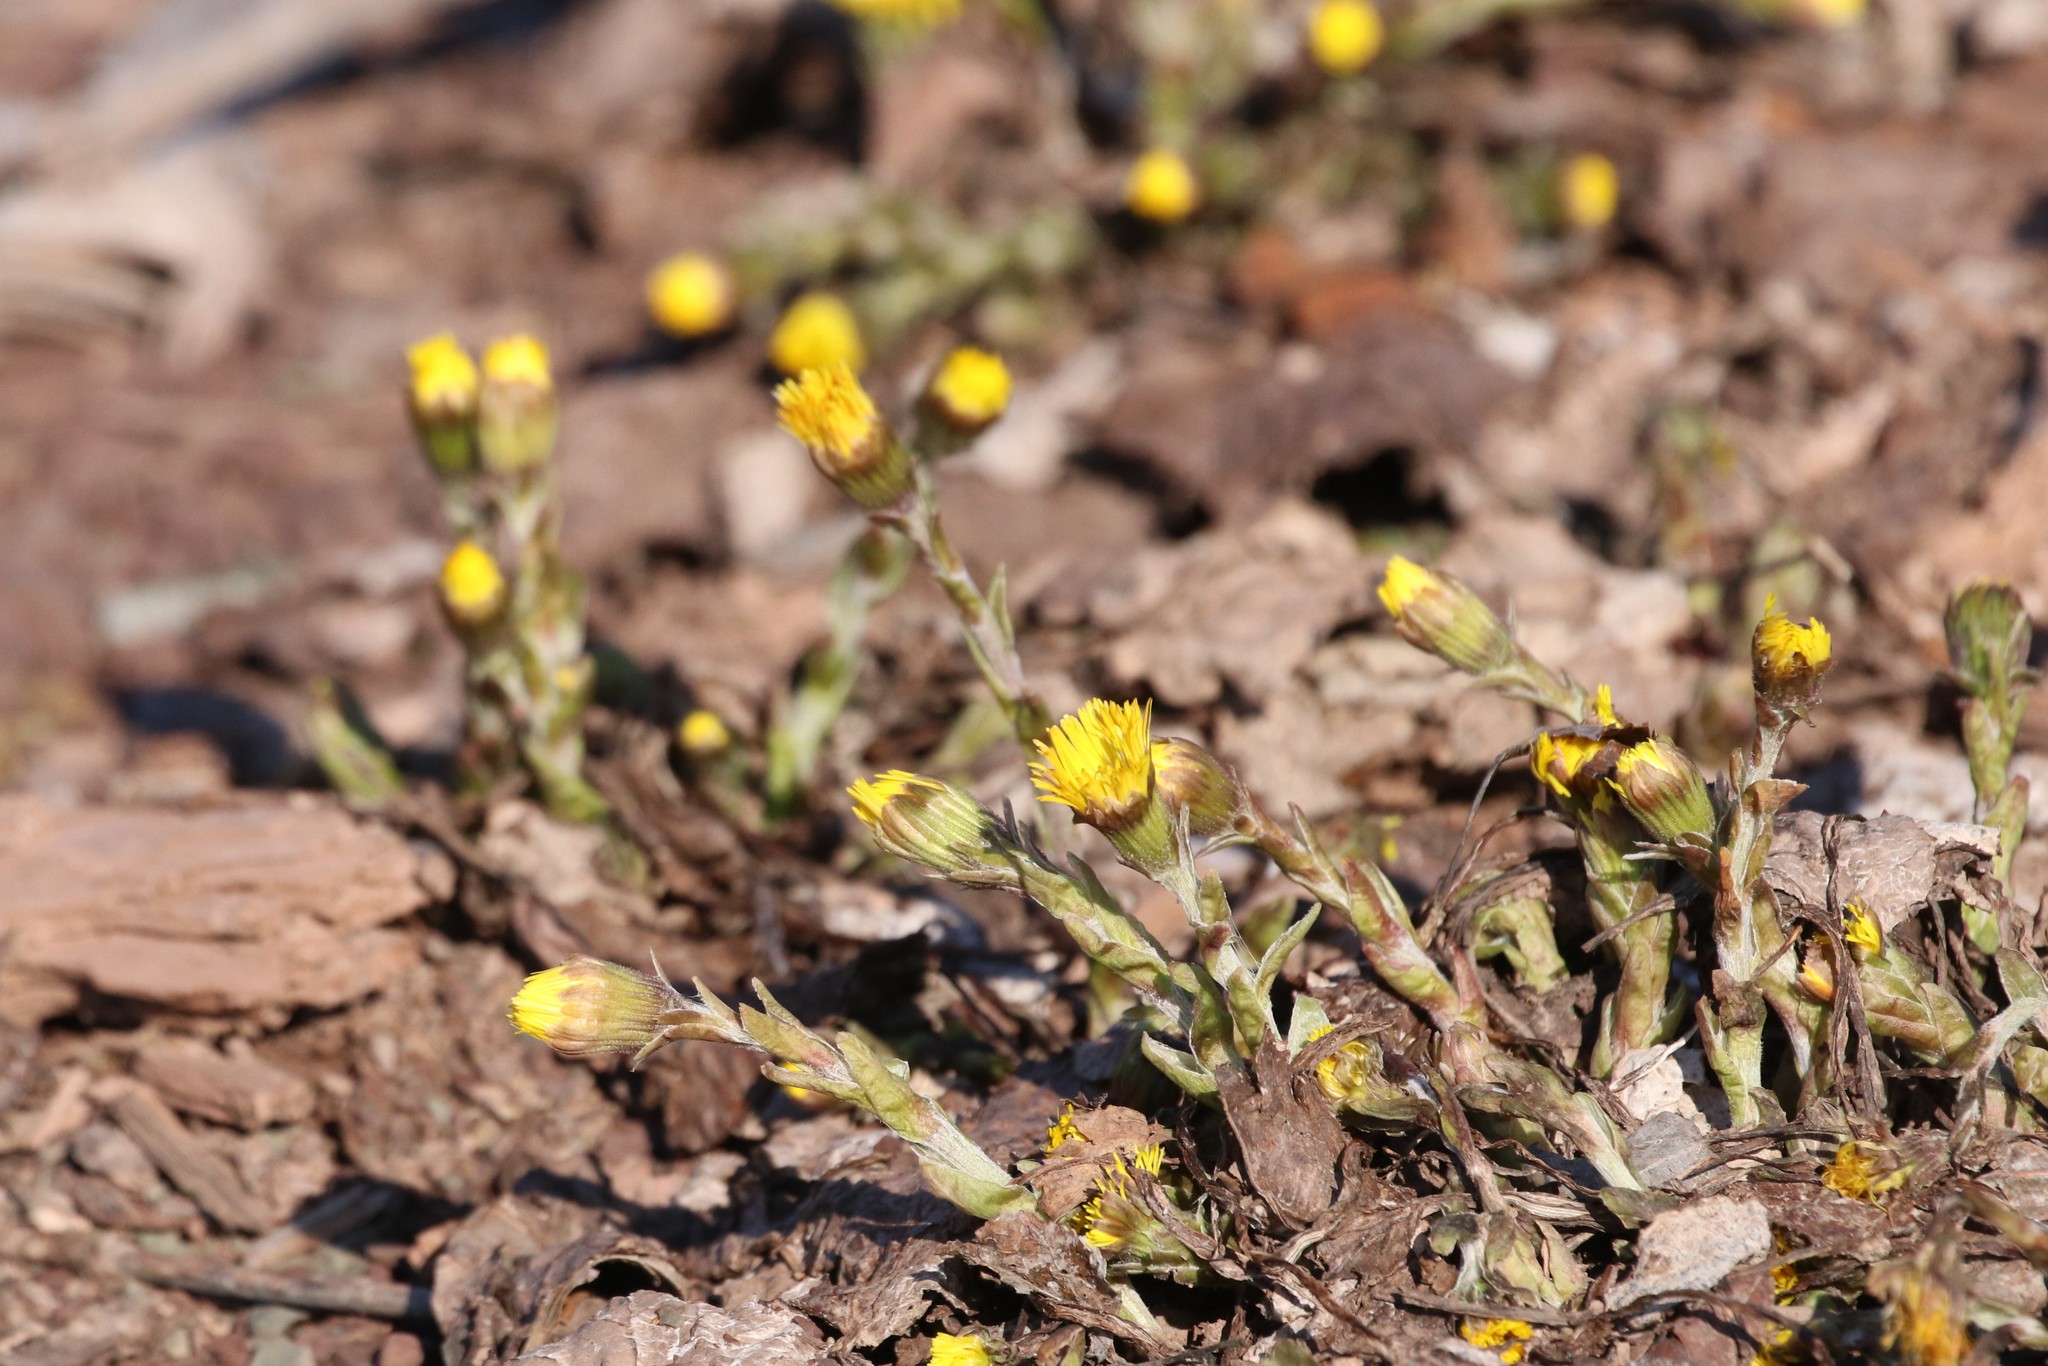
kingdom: Plantae
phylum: Tracheophyta
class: Magnoliopsida
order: Asterales
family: Asteraceae
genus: Tussilago
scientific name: Tussilago farfara
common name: Coltsfoot
